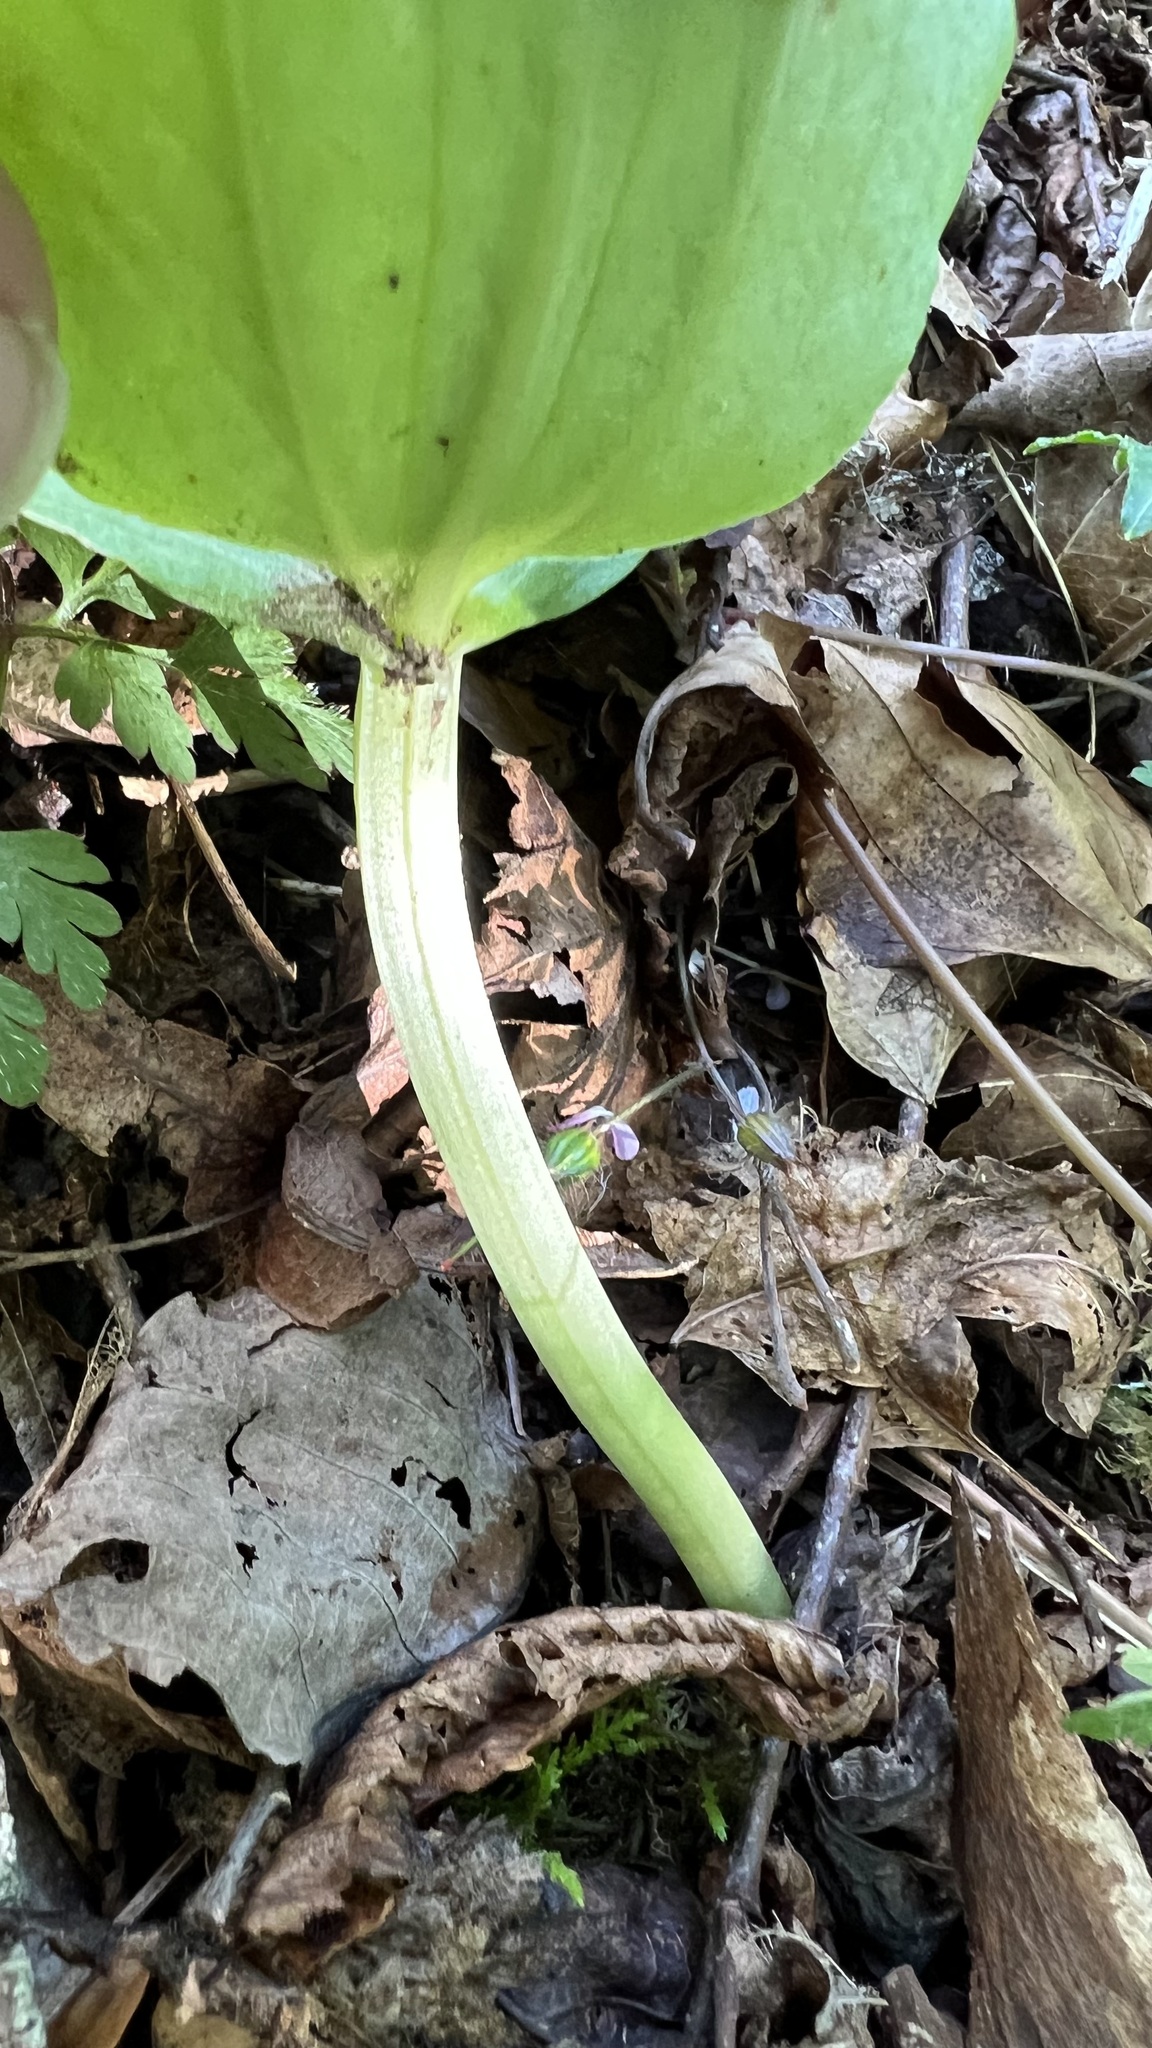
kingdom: Plantae
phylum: Tracheophyta
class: Liliopsida
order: Asparagales
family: Orchidaceae
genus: Neottia
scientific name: Neottia ovata
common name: Common twayblade
